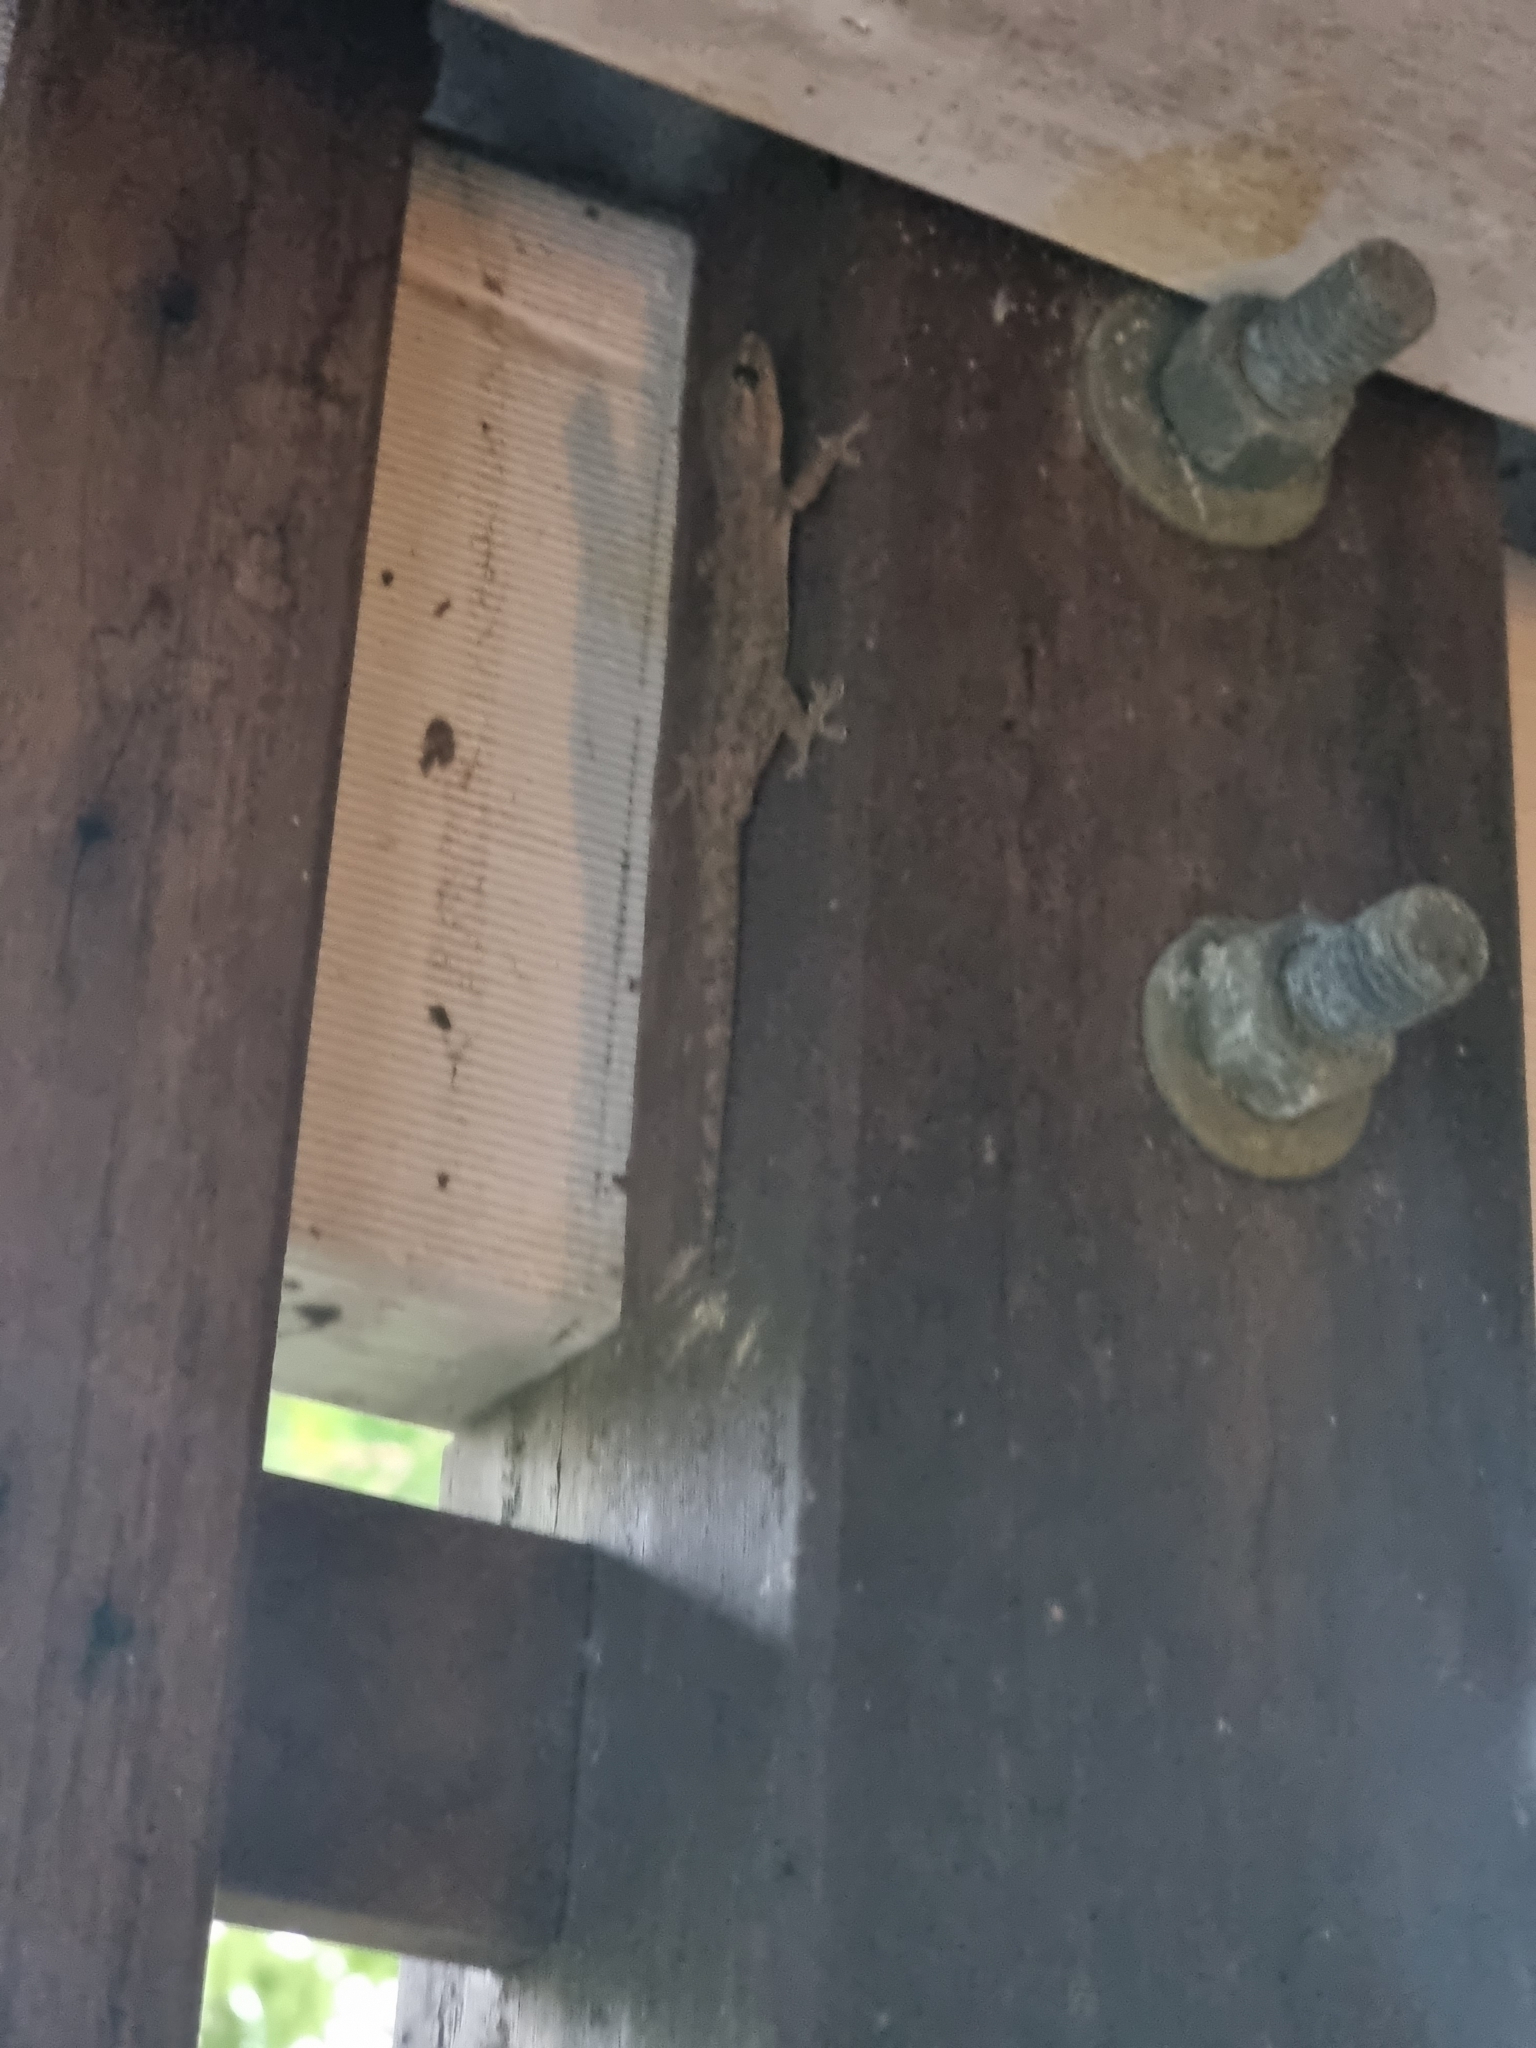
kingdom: Animalia
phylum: Chordata
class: Squamata
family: Gekkonidae
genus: Hemidactylus
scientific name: Hemidactylus frenatus
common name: Common house gecko
